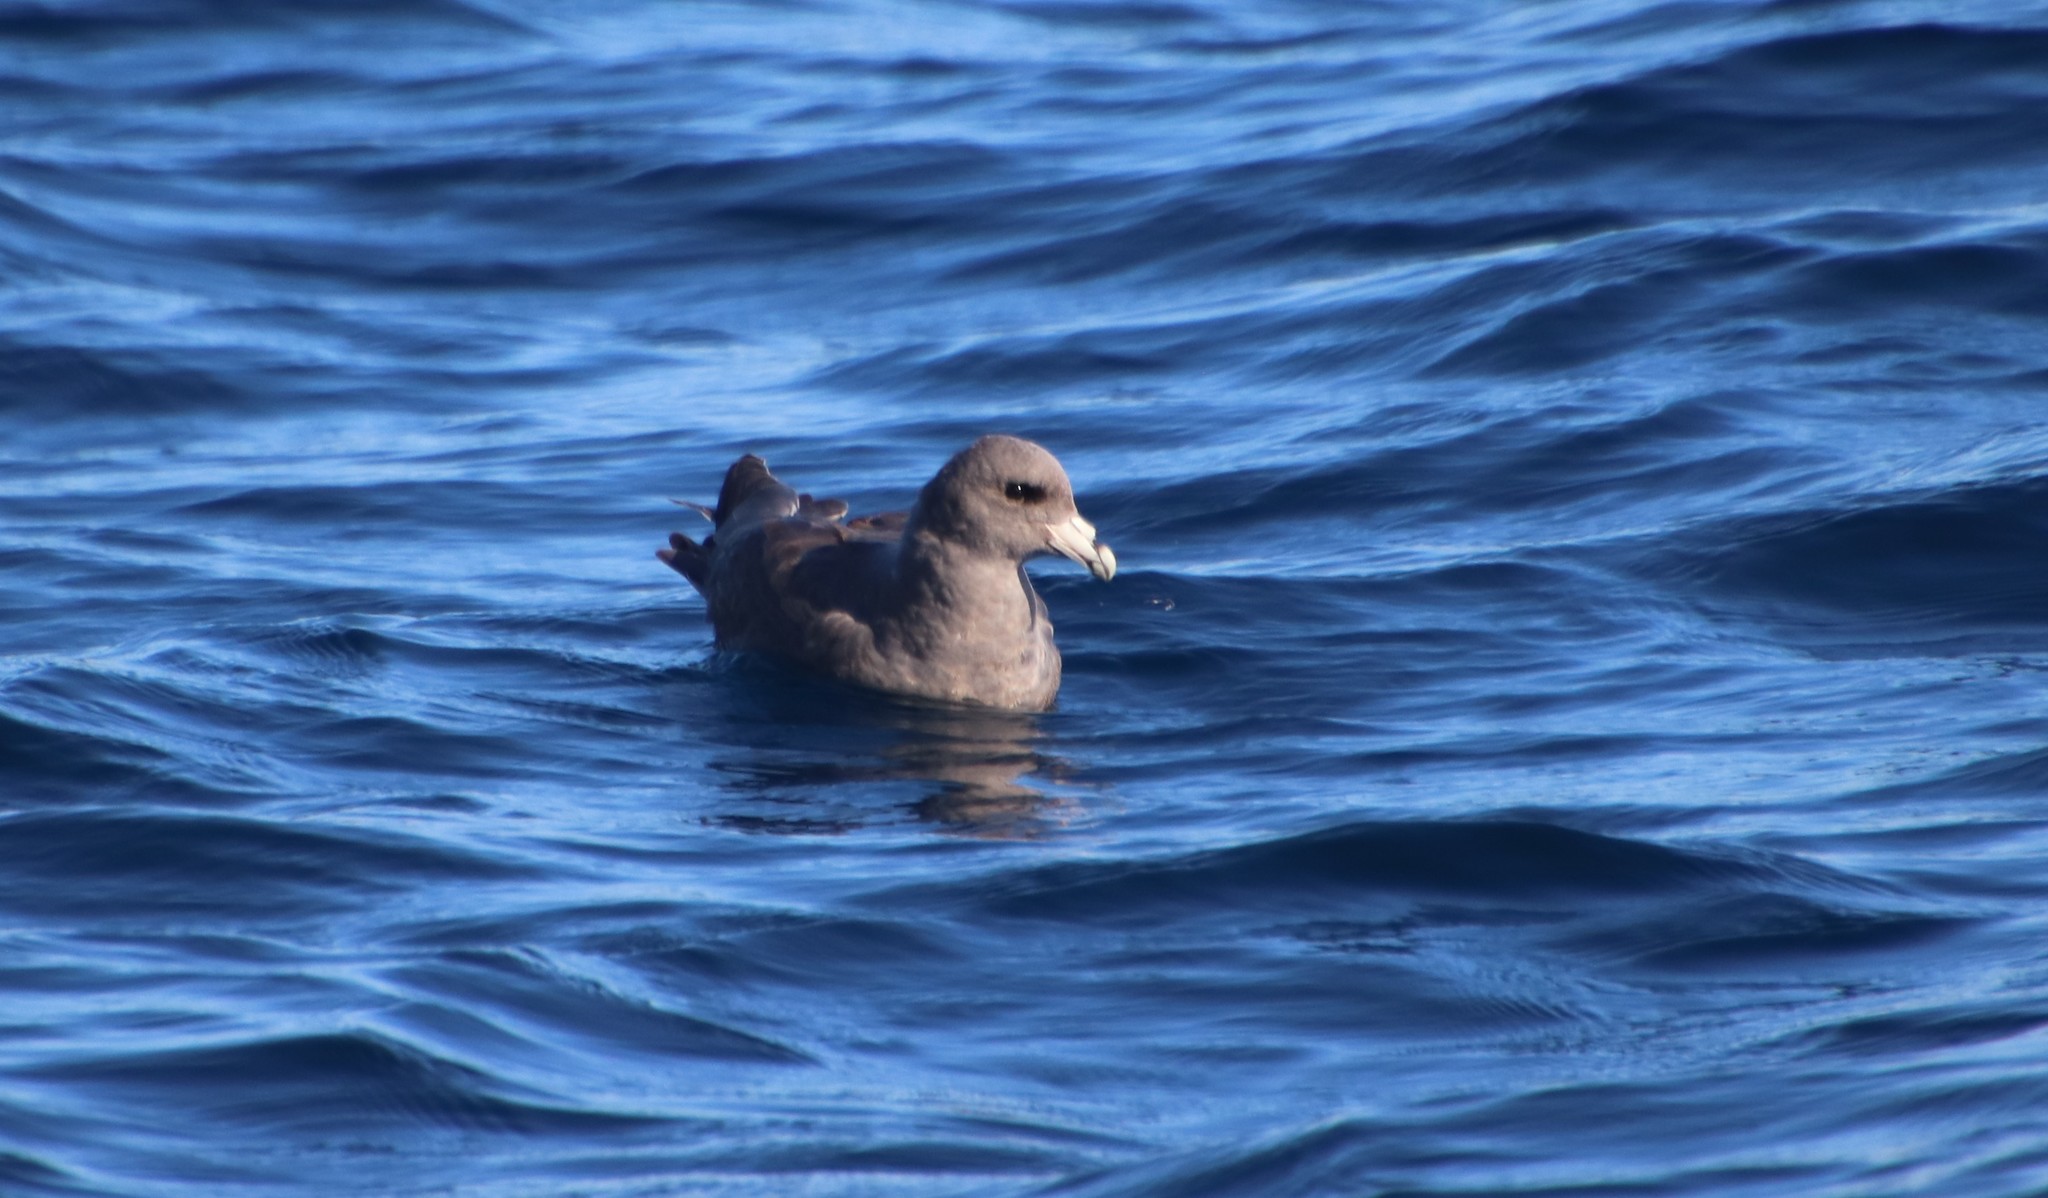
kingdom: Animalia
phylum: Chordata
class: Aves
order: Procellariiformes
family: Procellariidae
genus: Fulmarus
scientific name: Fulmarus glacialis
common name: Northern fulmar
